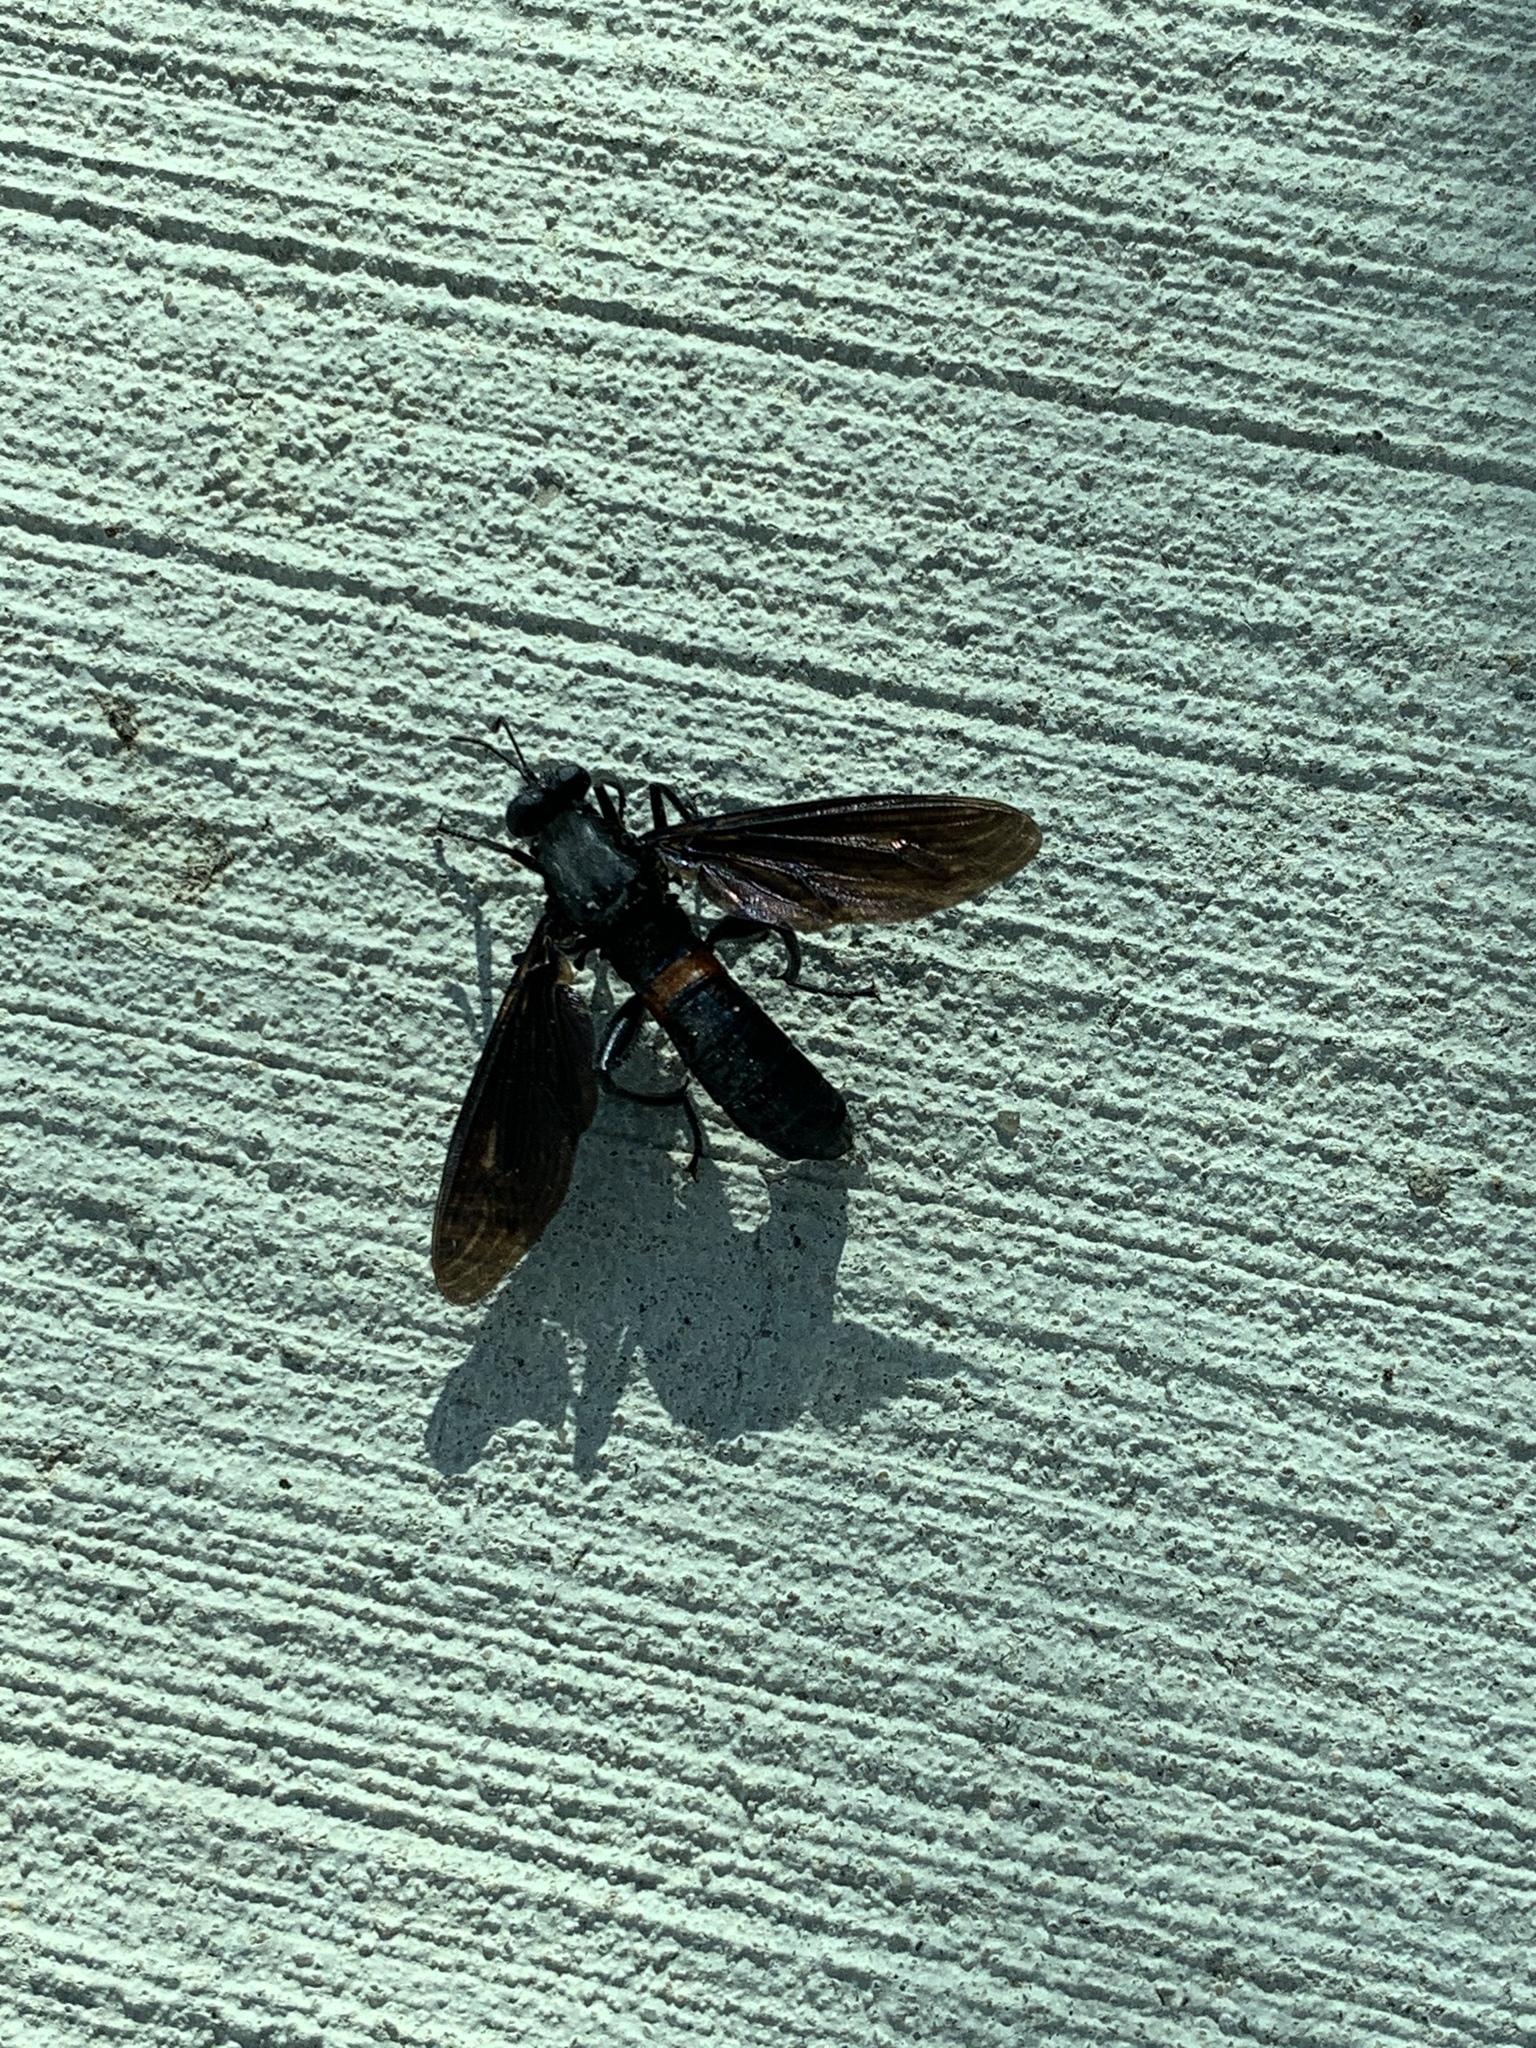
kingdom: Animalia
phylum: Arthropoda
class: Insecta
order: Diptera
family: Mydidae
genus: Mydas
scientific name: Mydas clavatus
